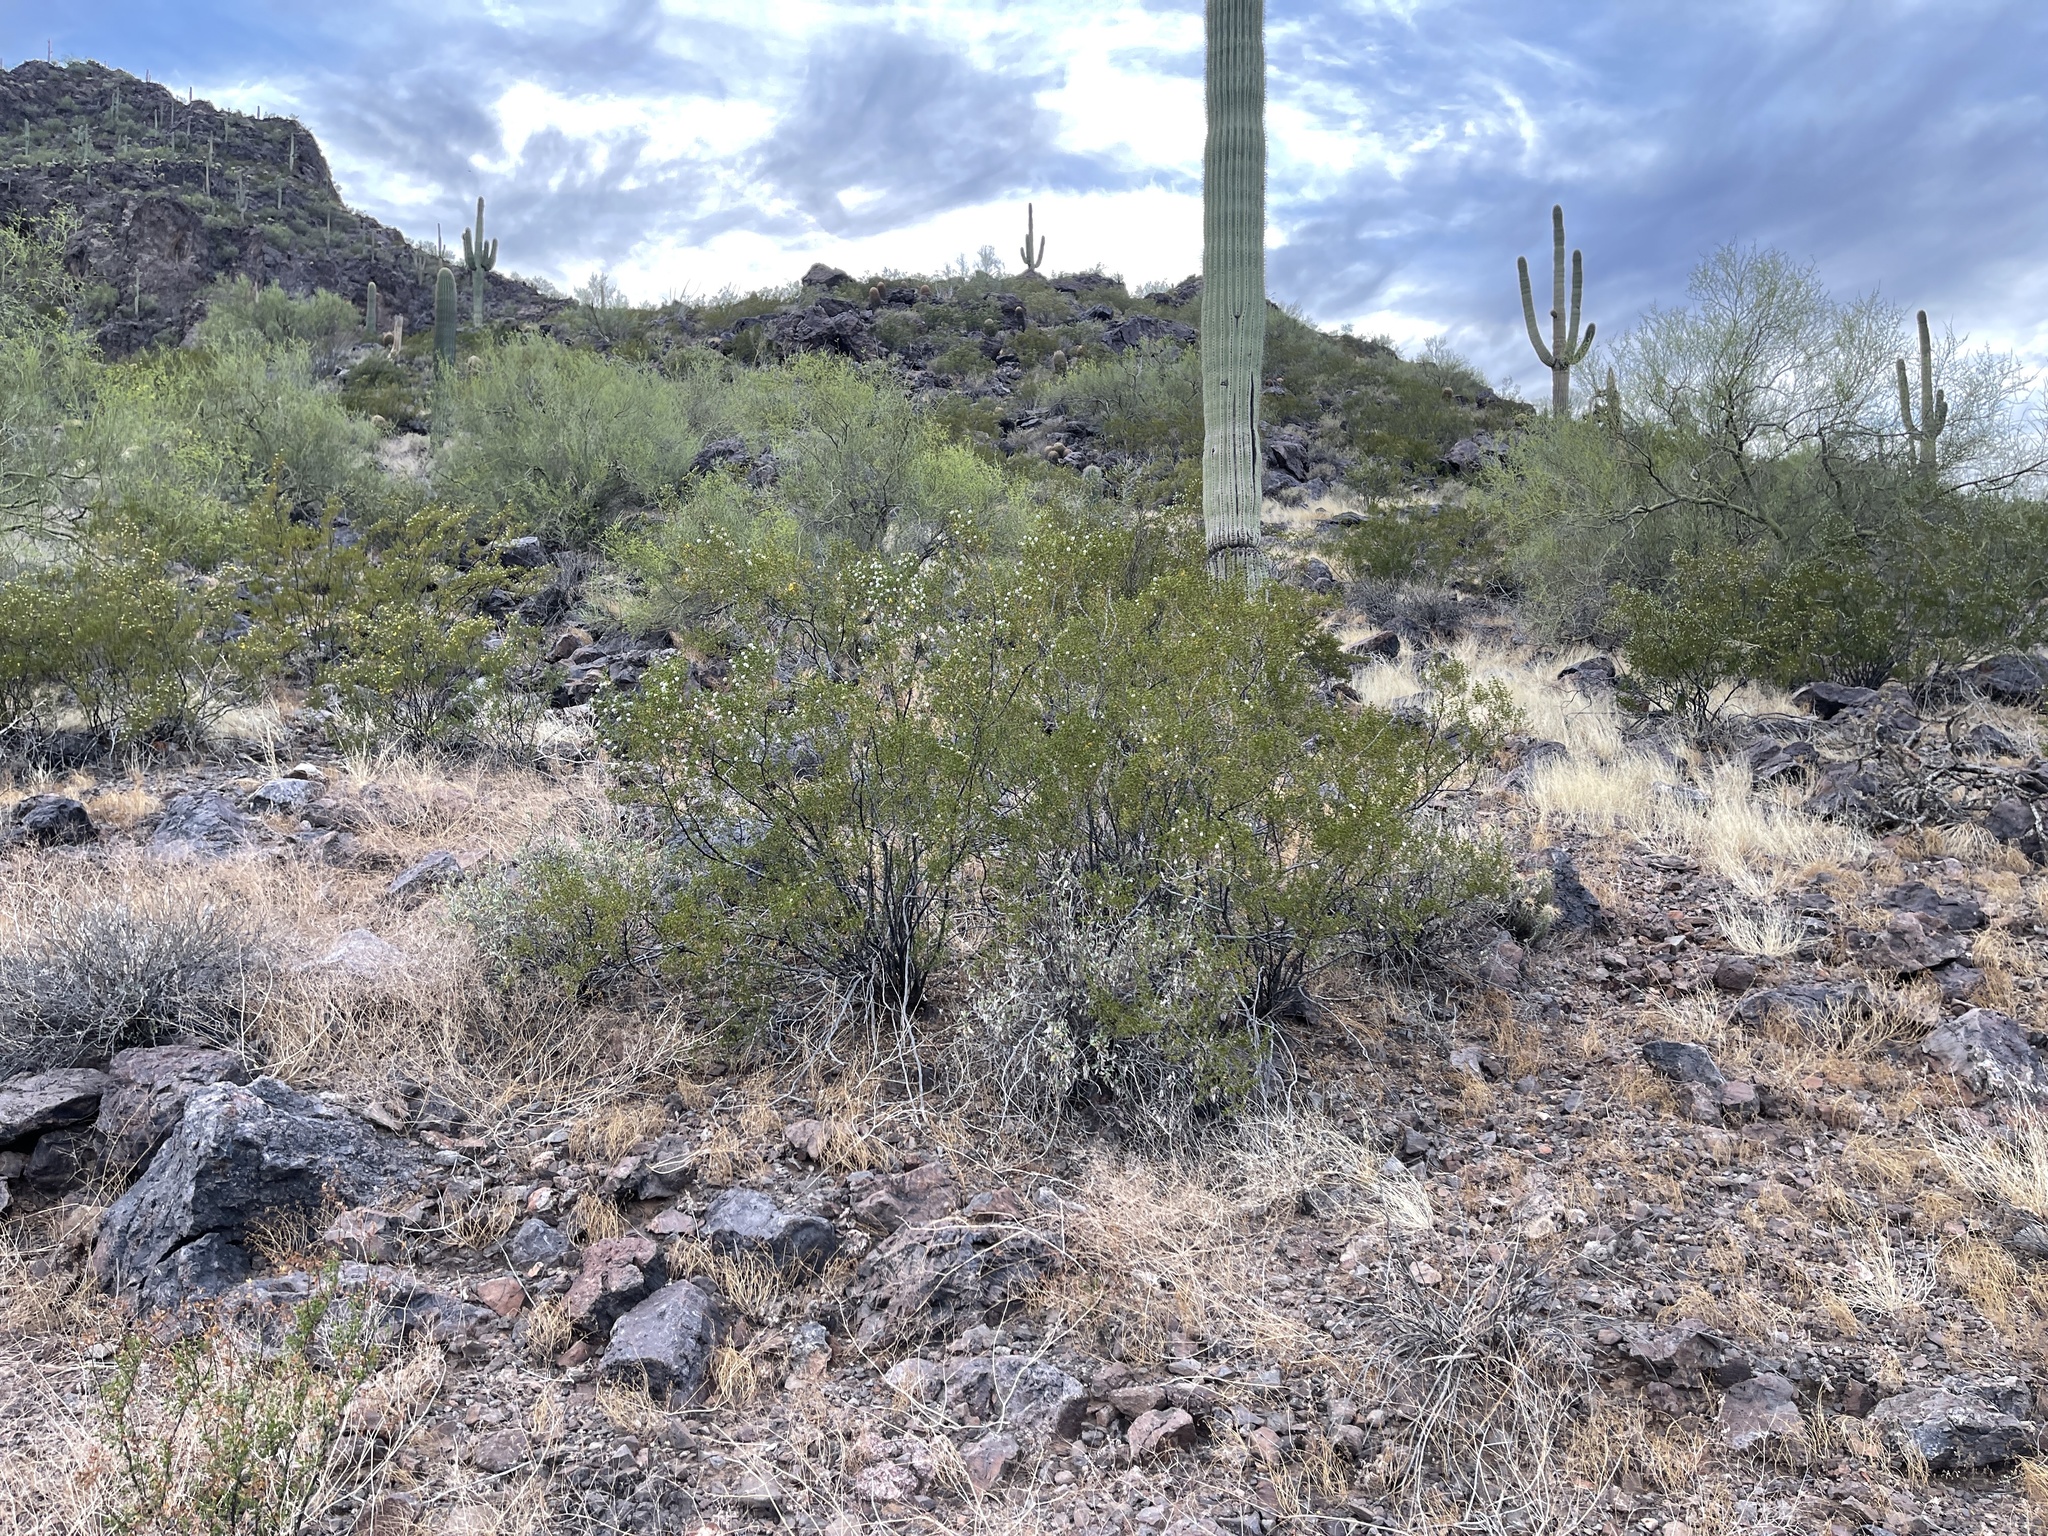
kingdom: Plantae
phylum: Tracheophyta
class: Magnoliopsida
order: Zygophyllales
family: Zygophyllaceae
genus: Larrea
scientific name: Larrea tridentata
